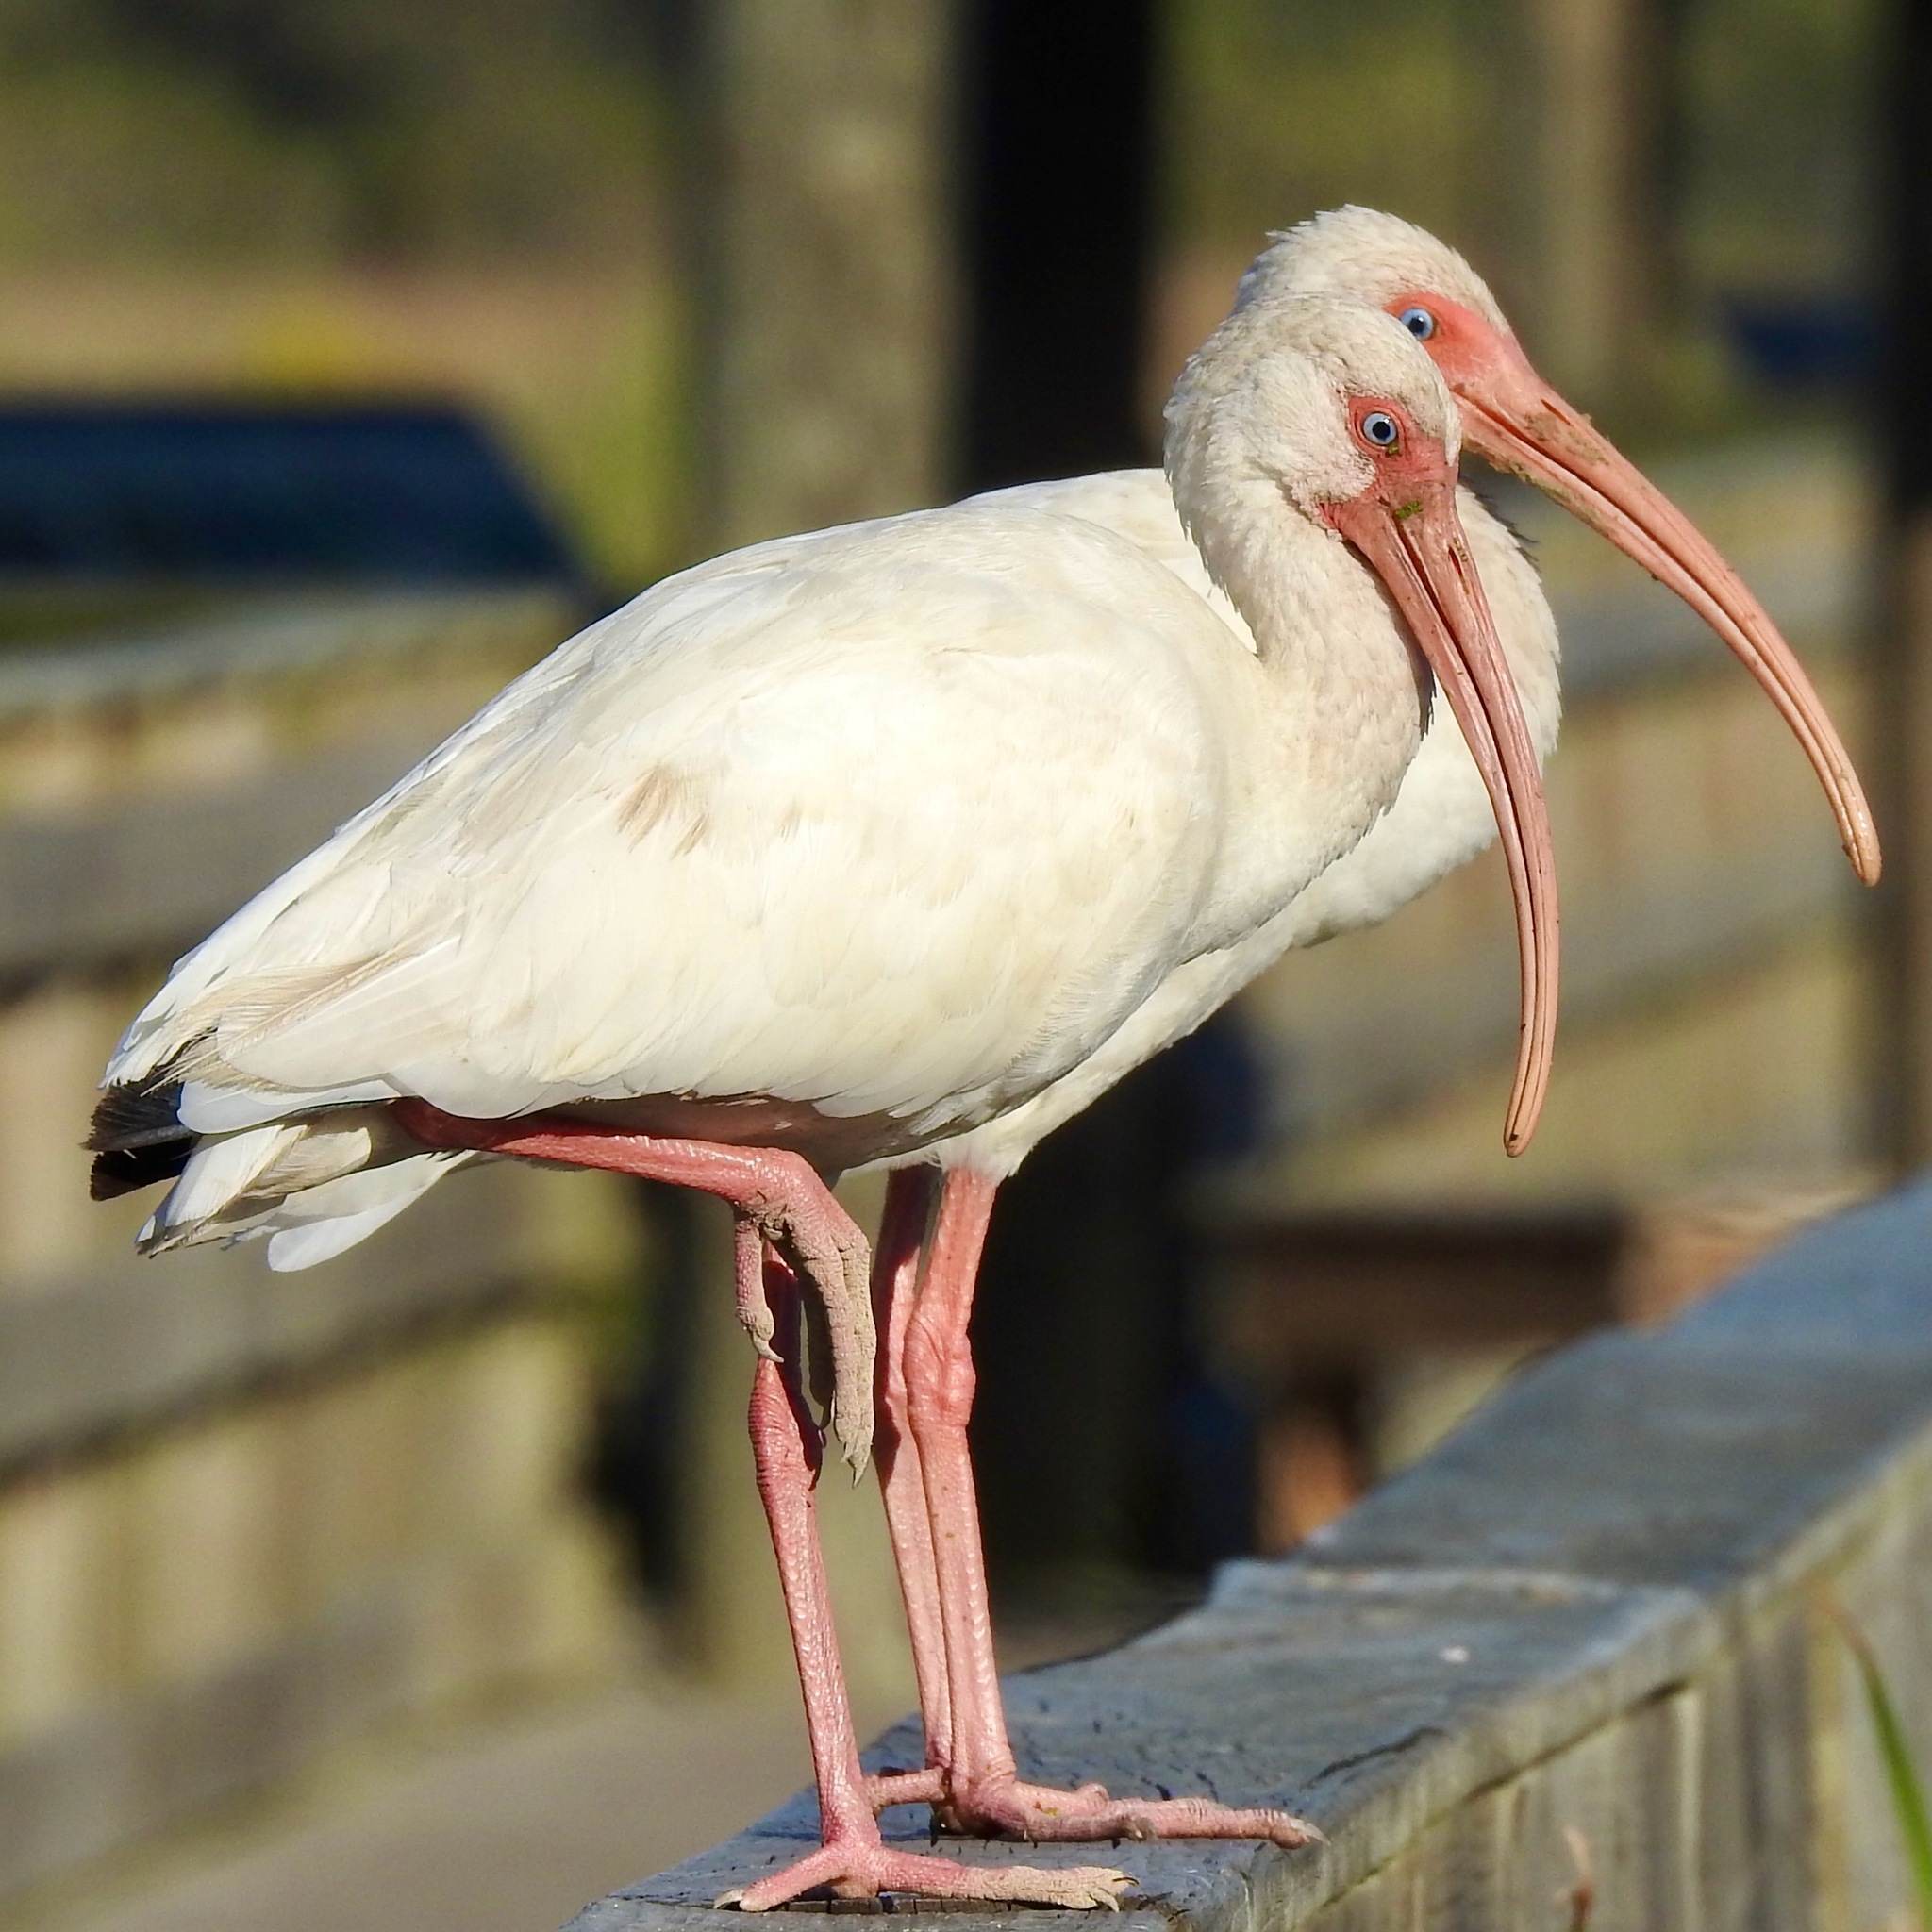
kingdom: Animalia
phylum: Chordata
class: Aves
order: Pelecaniformes
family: Threskiornithidae
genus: Eudocimus
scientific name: Eudocimus albus
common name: White ibis
